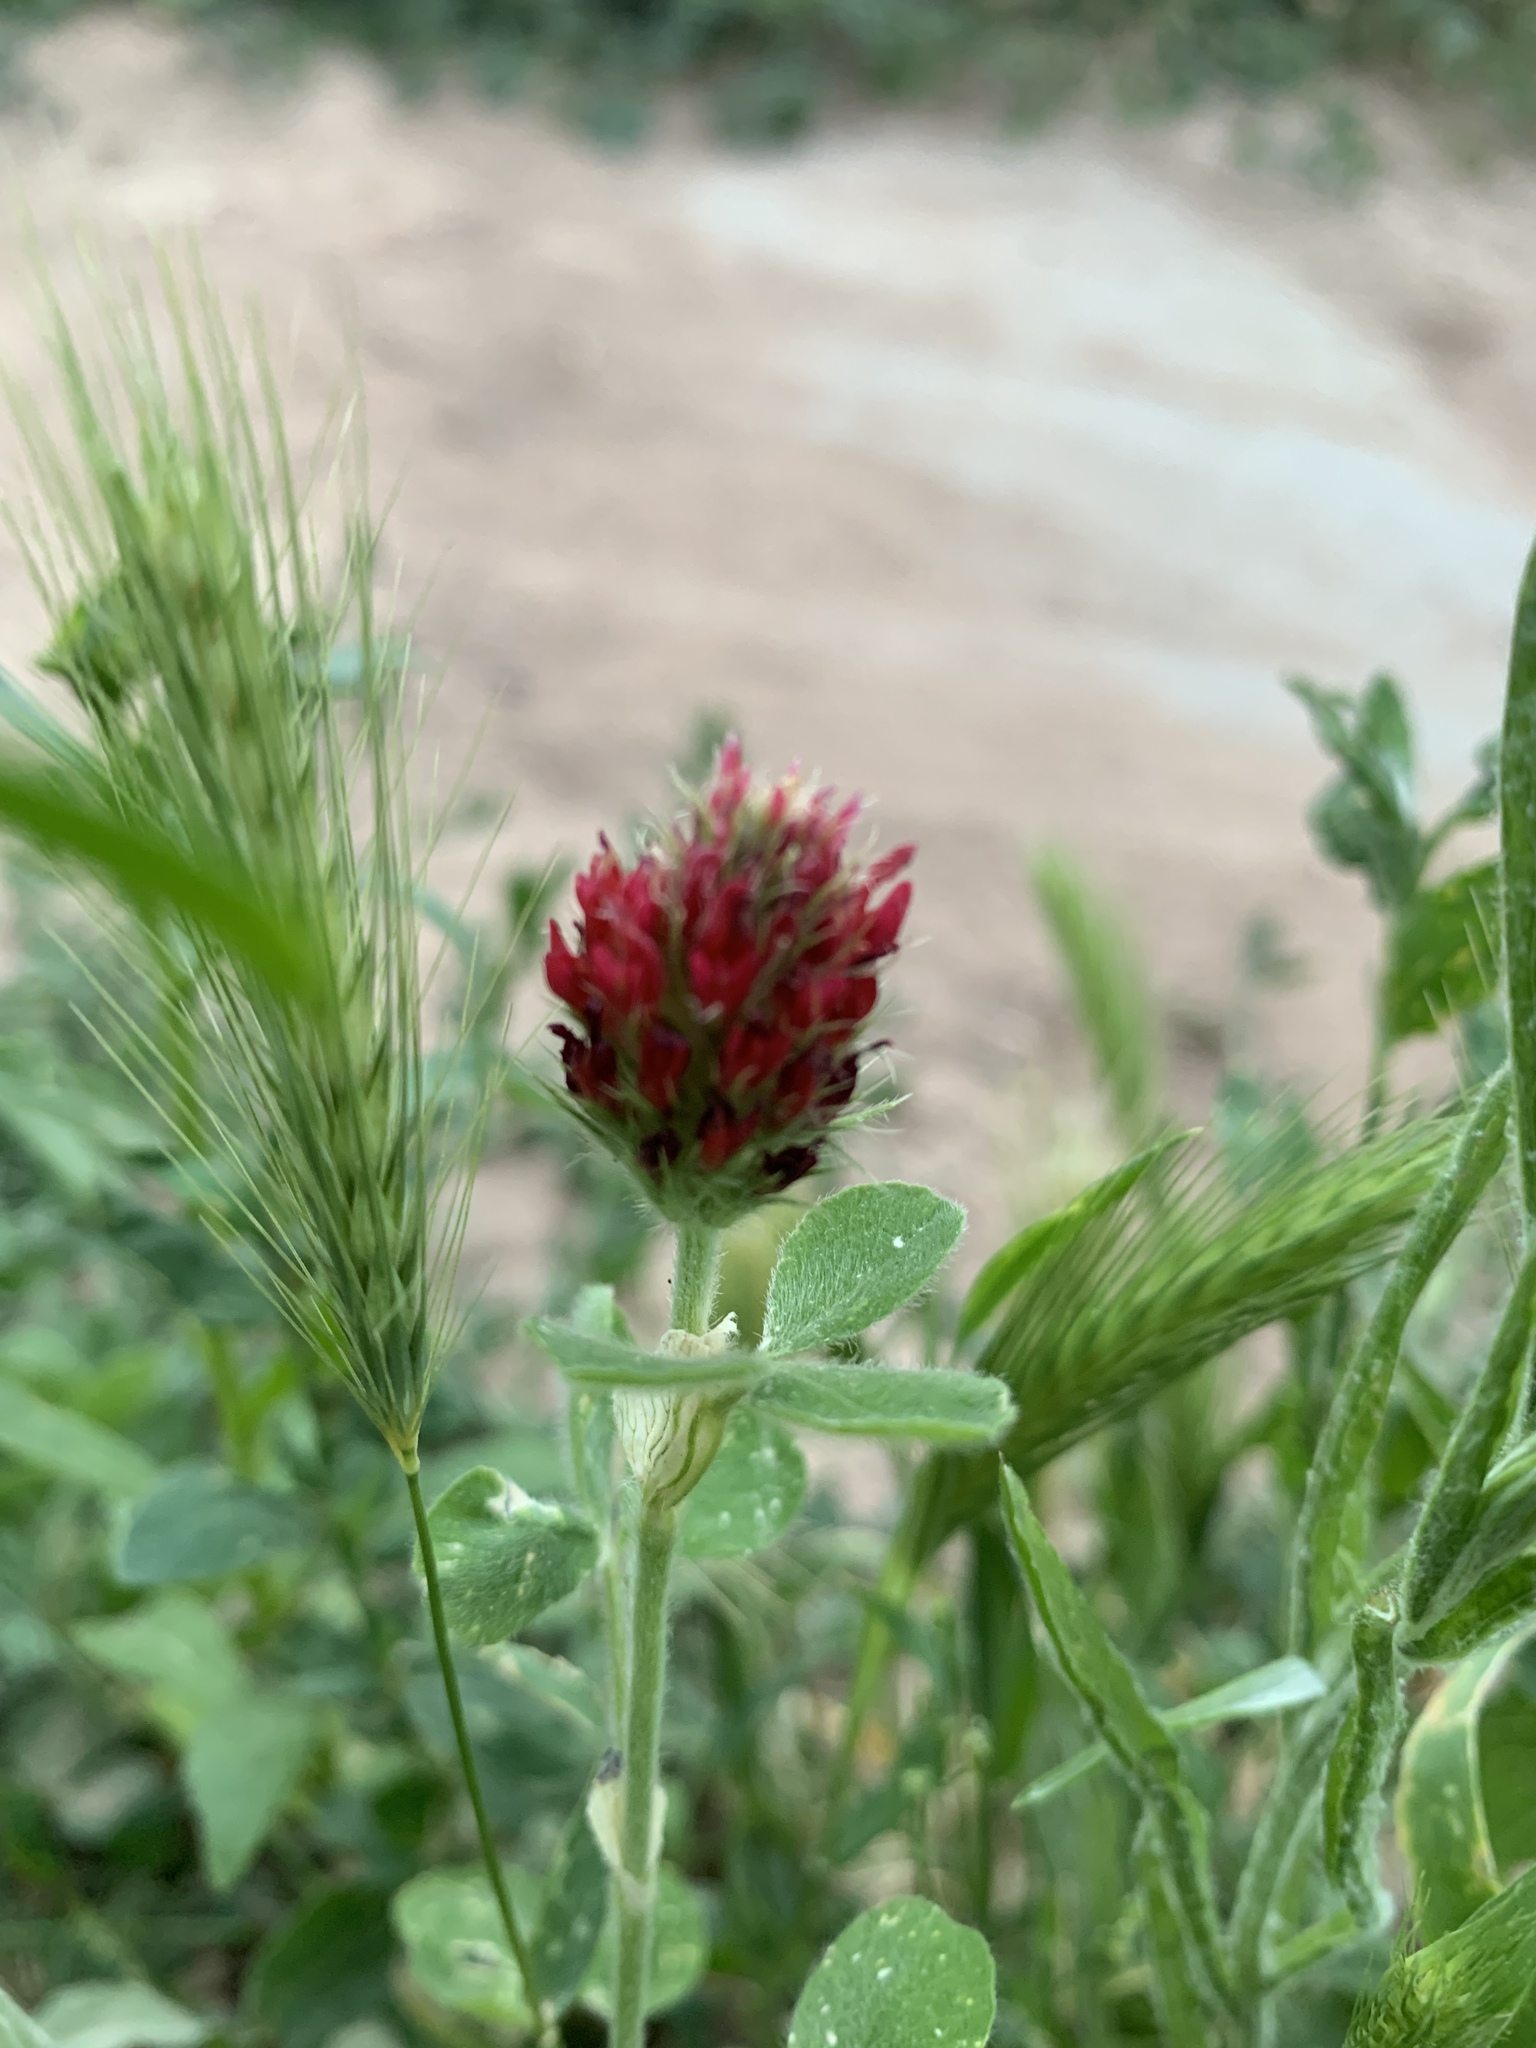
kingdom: Plantae
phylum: Tracheophyta
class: Magnoliopsida
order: Fabales
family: Fabaceae
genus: Trifolium
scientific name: Trifolium incarnatum
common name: Crimson clover
